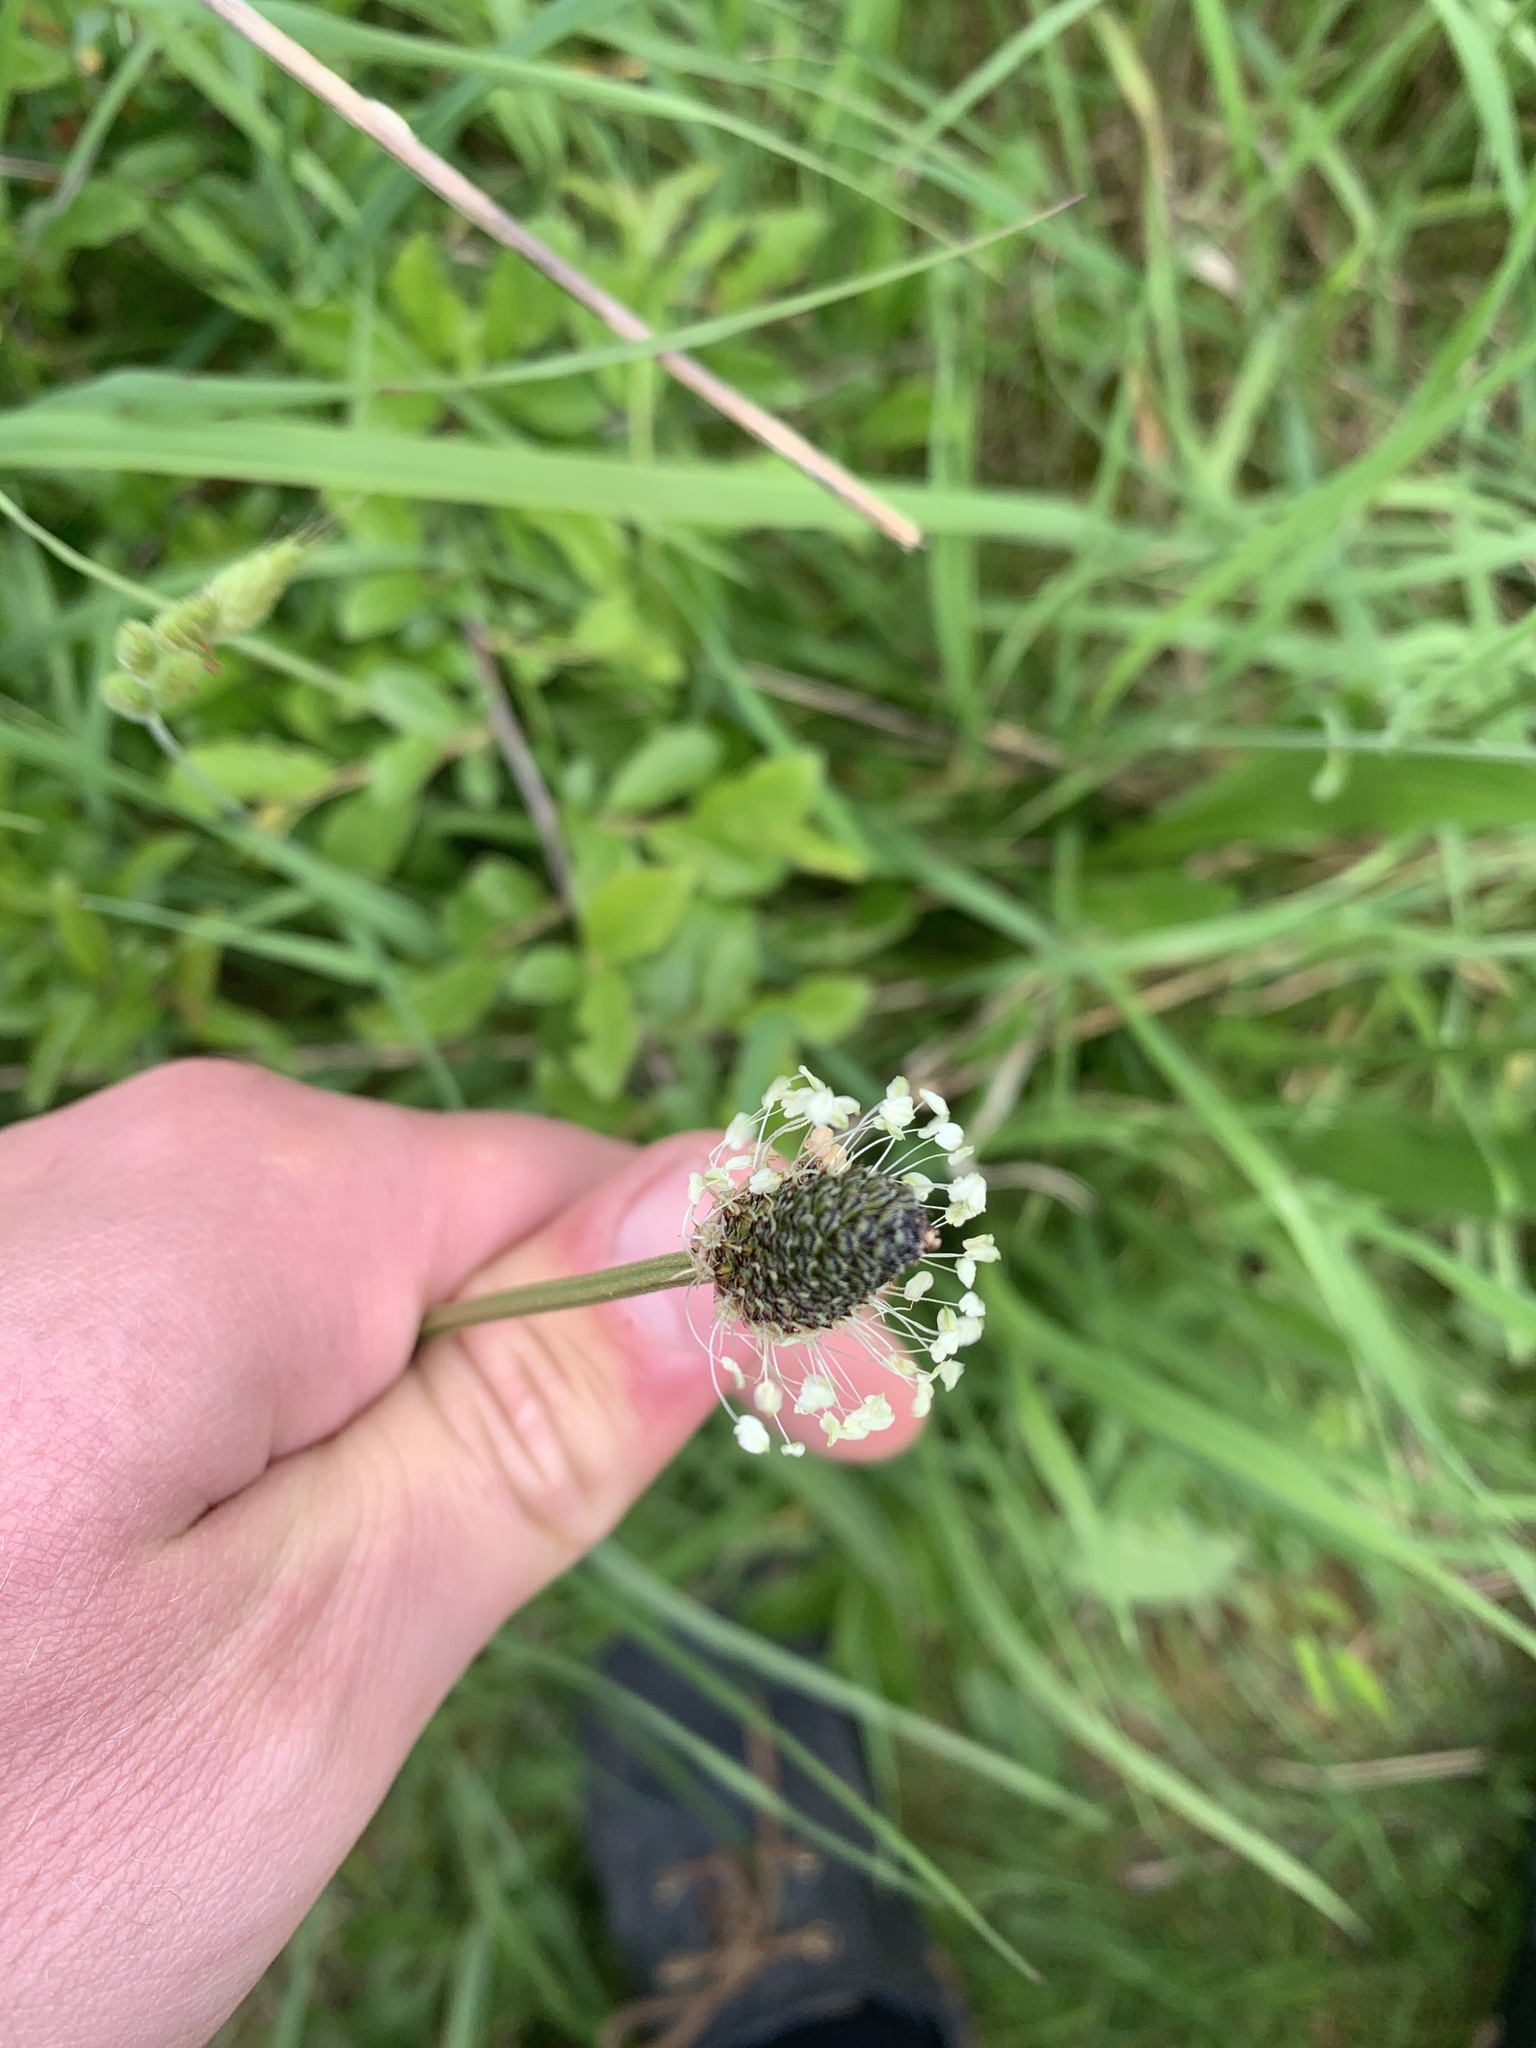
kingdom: Plantae
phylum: Tracheophyta
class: Magnoliopsida
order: Lamiales
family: Plantaginaceae
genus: Plantago
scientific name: Plantago lanceolata
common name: Ribwort plantain
